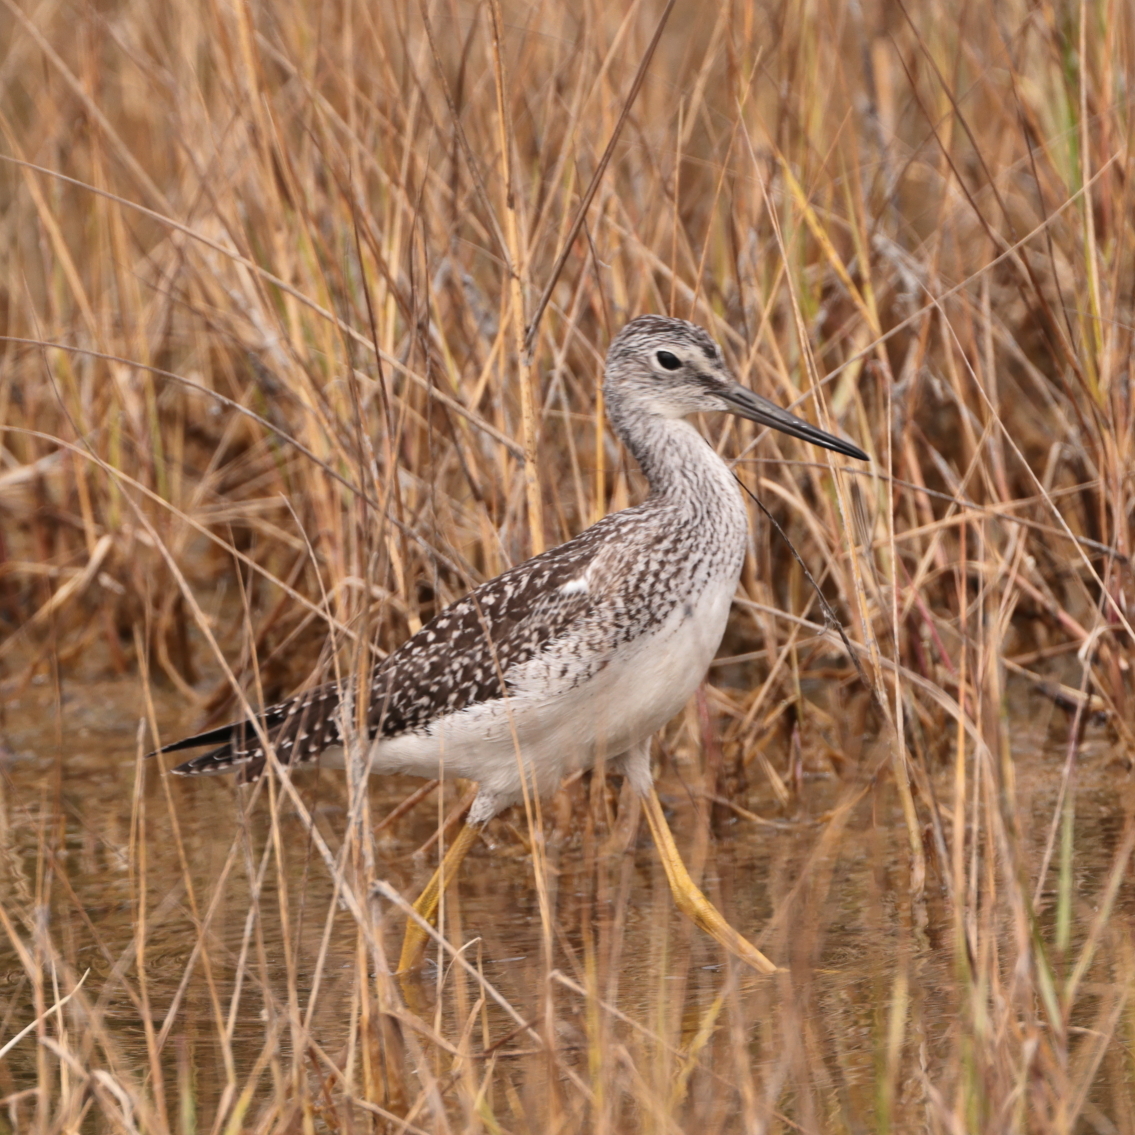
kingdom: Animalia
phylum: Chordata
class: Aves
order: Charadriiformes
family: Scolopacidae
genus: Tringa
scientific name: Tringa melanoleuca
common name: Greater yellowlegs
